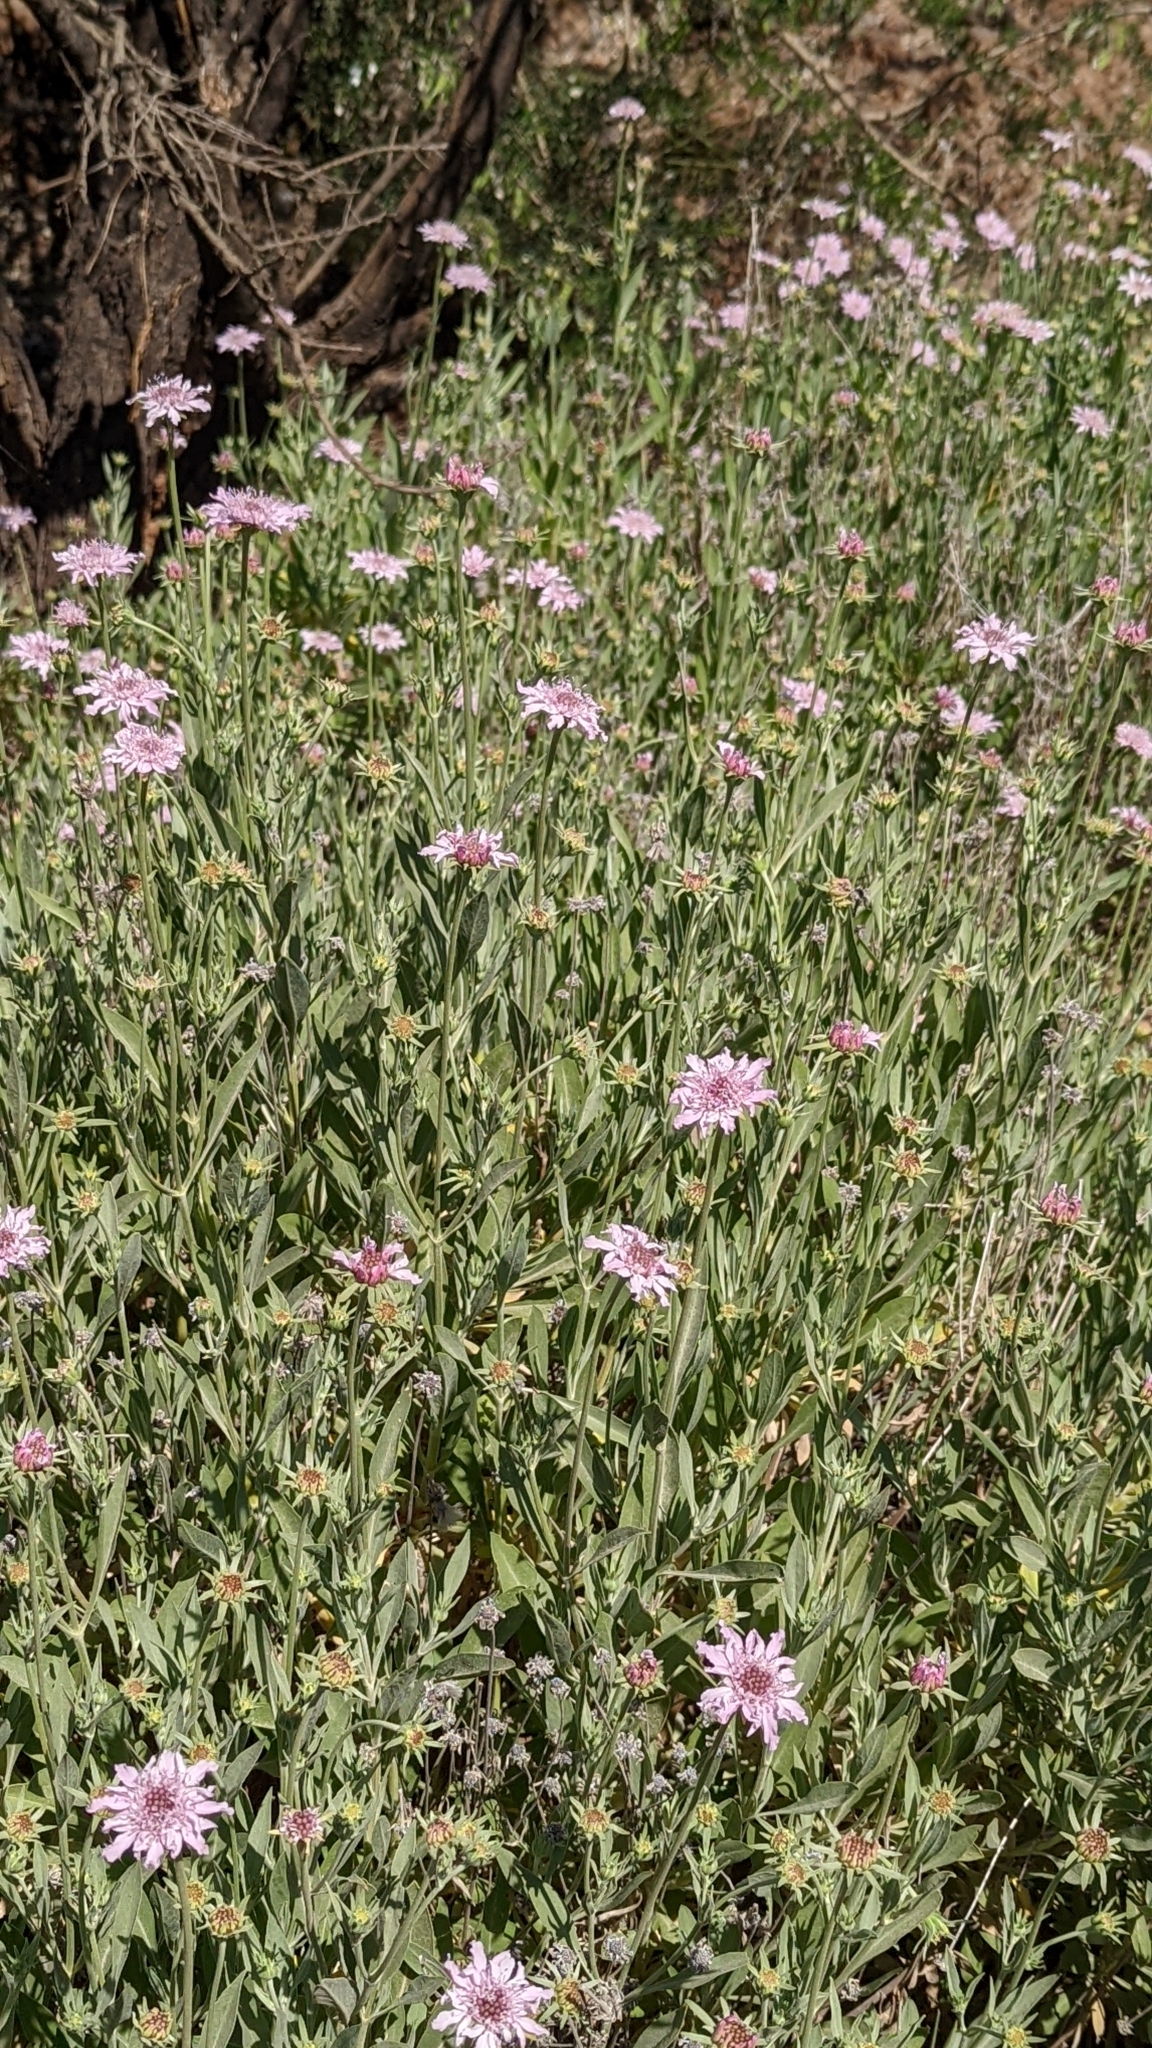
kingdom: Plantae
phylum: Tracheophyta
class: Magnoliopsida
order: Dipsacales
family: Caprifoliaceae
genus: Pterocephalus
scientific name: Pterocephalus lasiospermus
